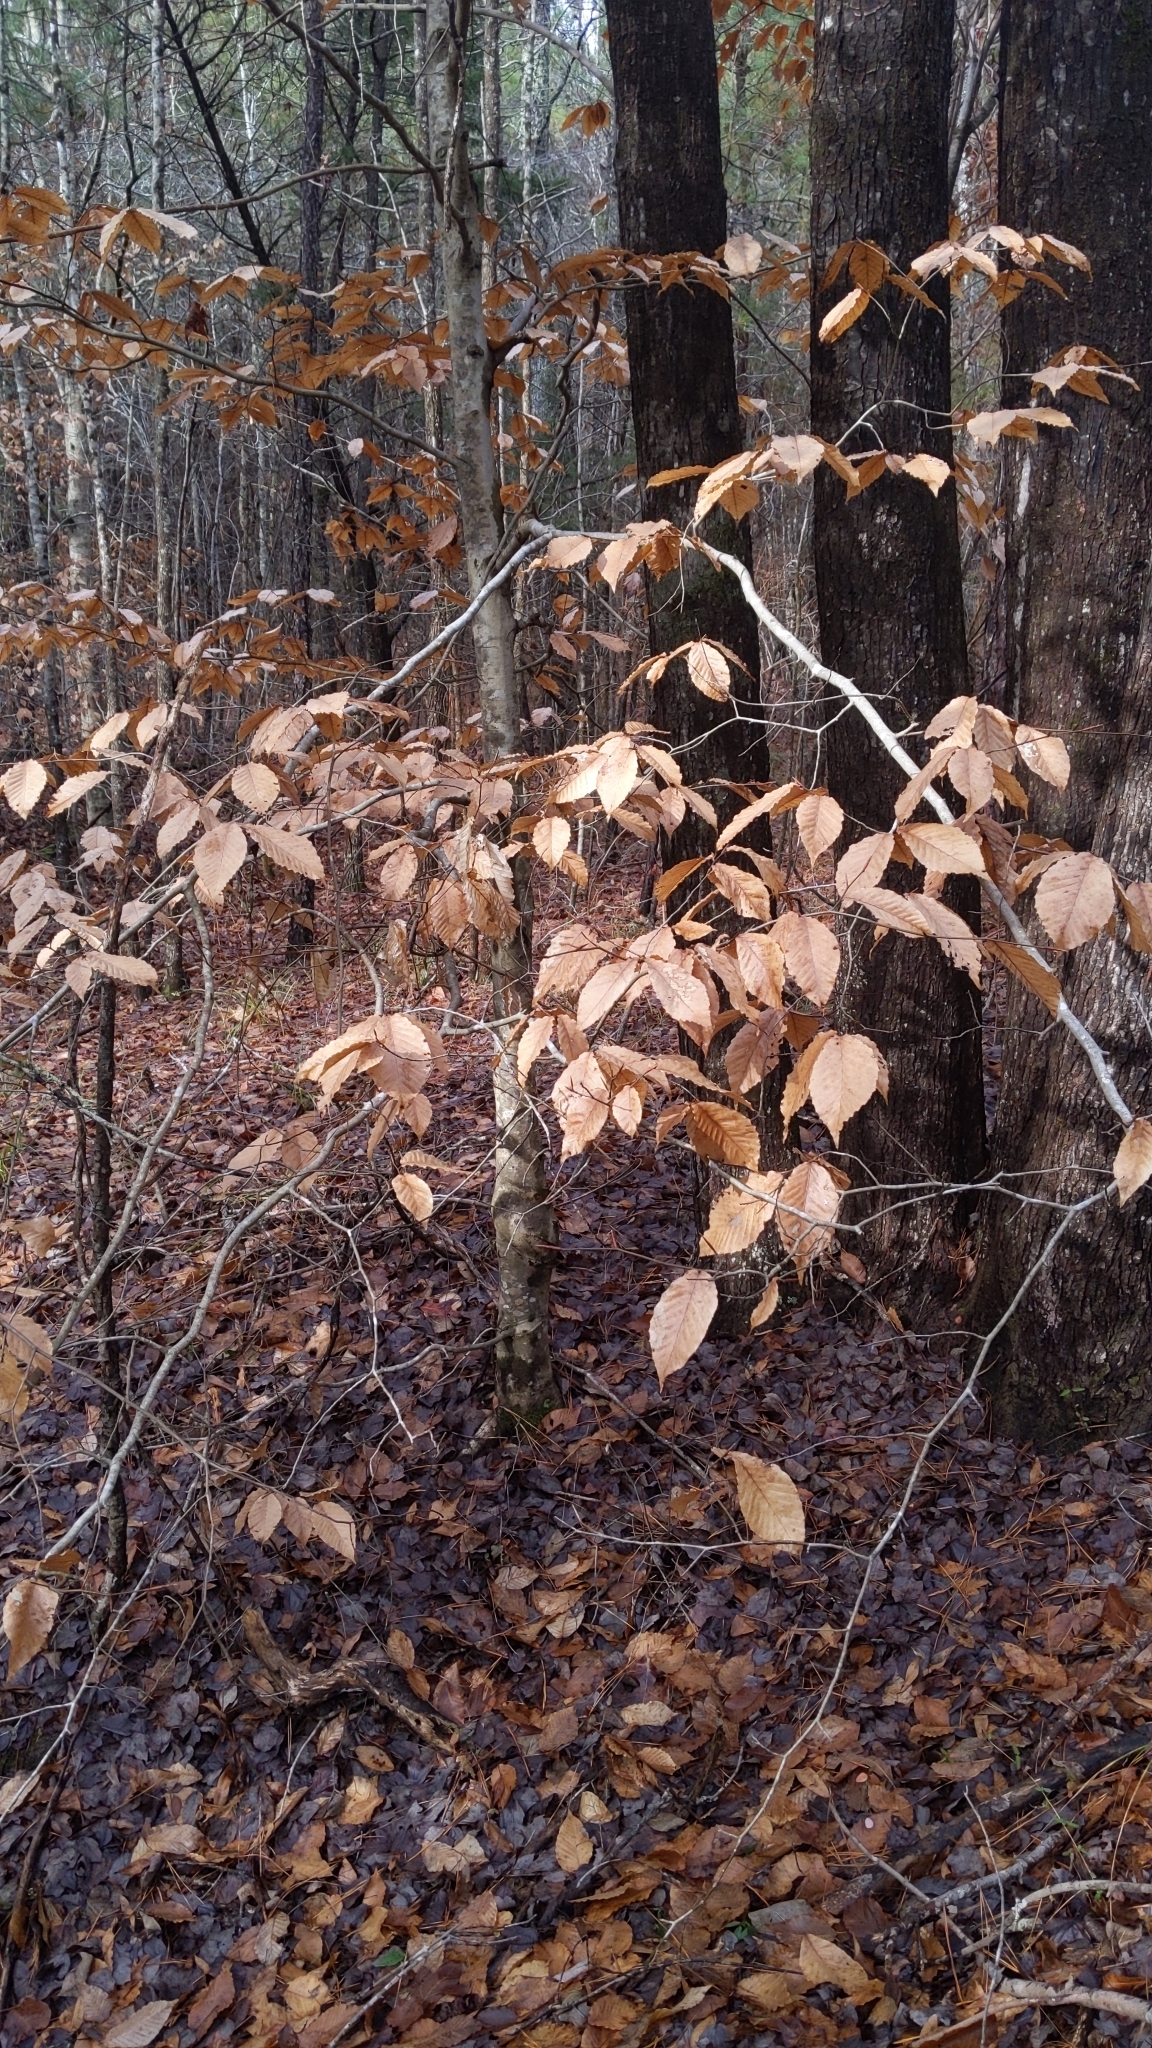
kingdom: Plantae
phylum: Tracheophyta
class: Magnoliopsida
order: Fagales
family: Fagaceae
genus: Fagus
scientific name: Fagus grandifolia
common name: American beech
